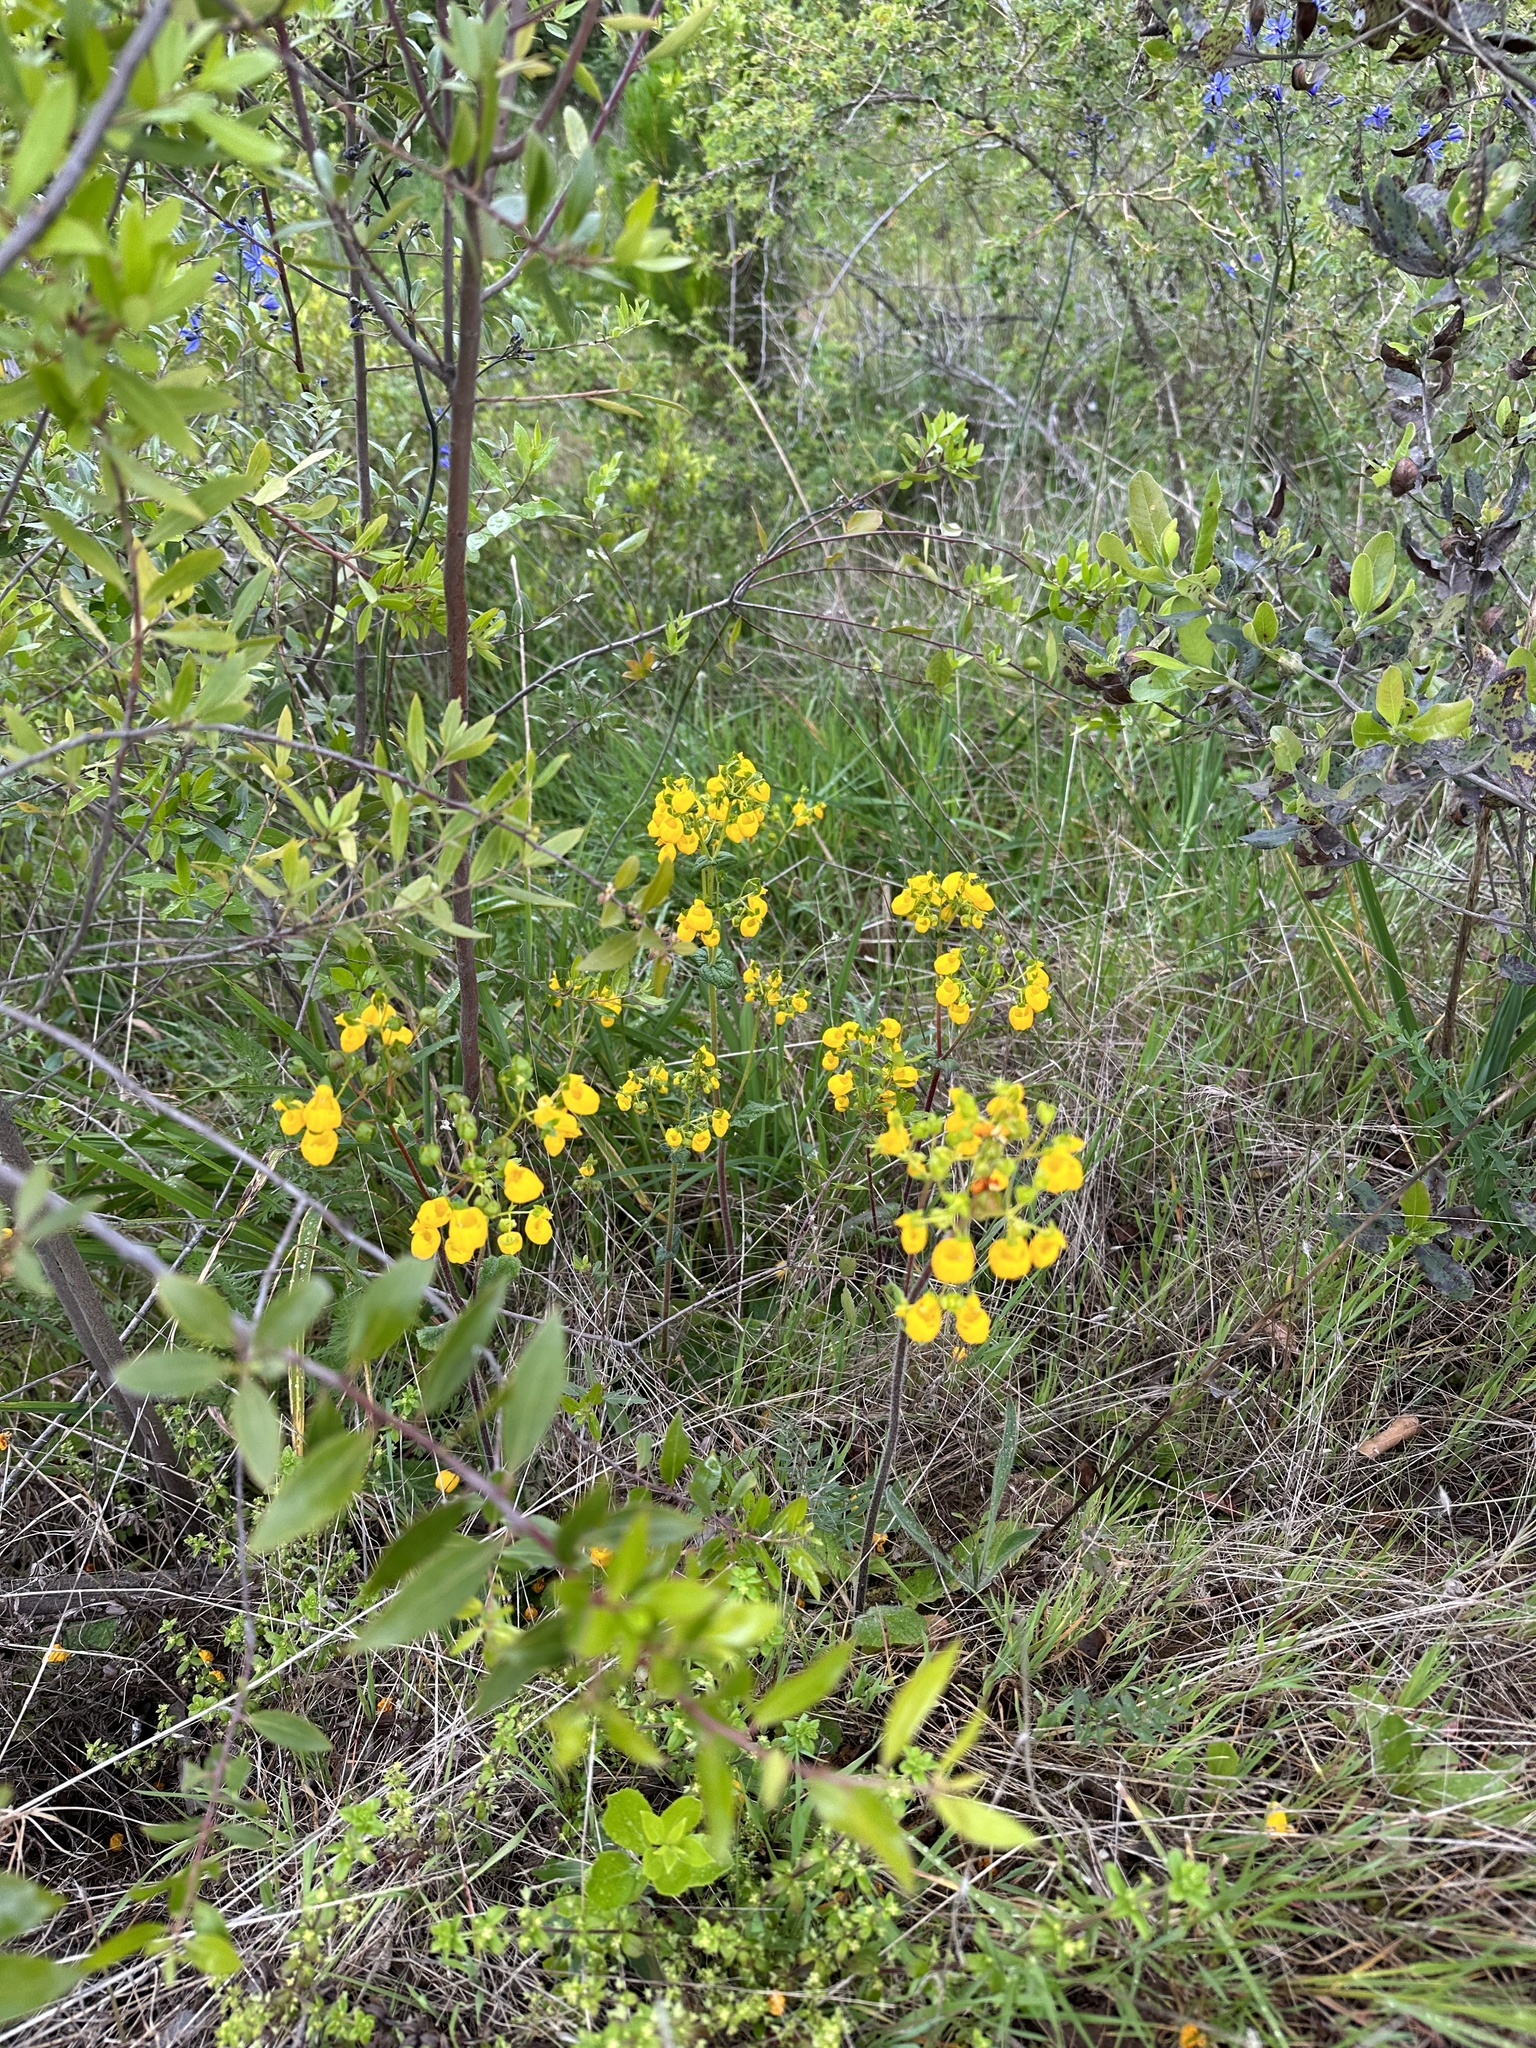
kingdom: Plantae
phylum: Tracheophyta
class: Magnoliopsida
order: Lamiales
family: Calceolariaceae
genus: Calceolaria
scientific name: Calceolaria corymbosa
